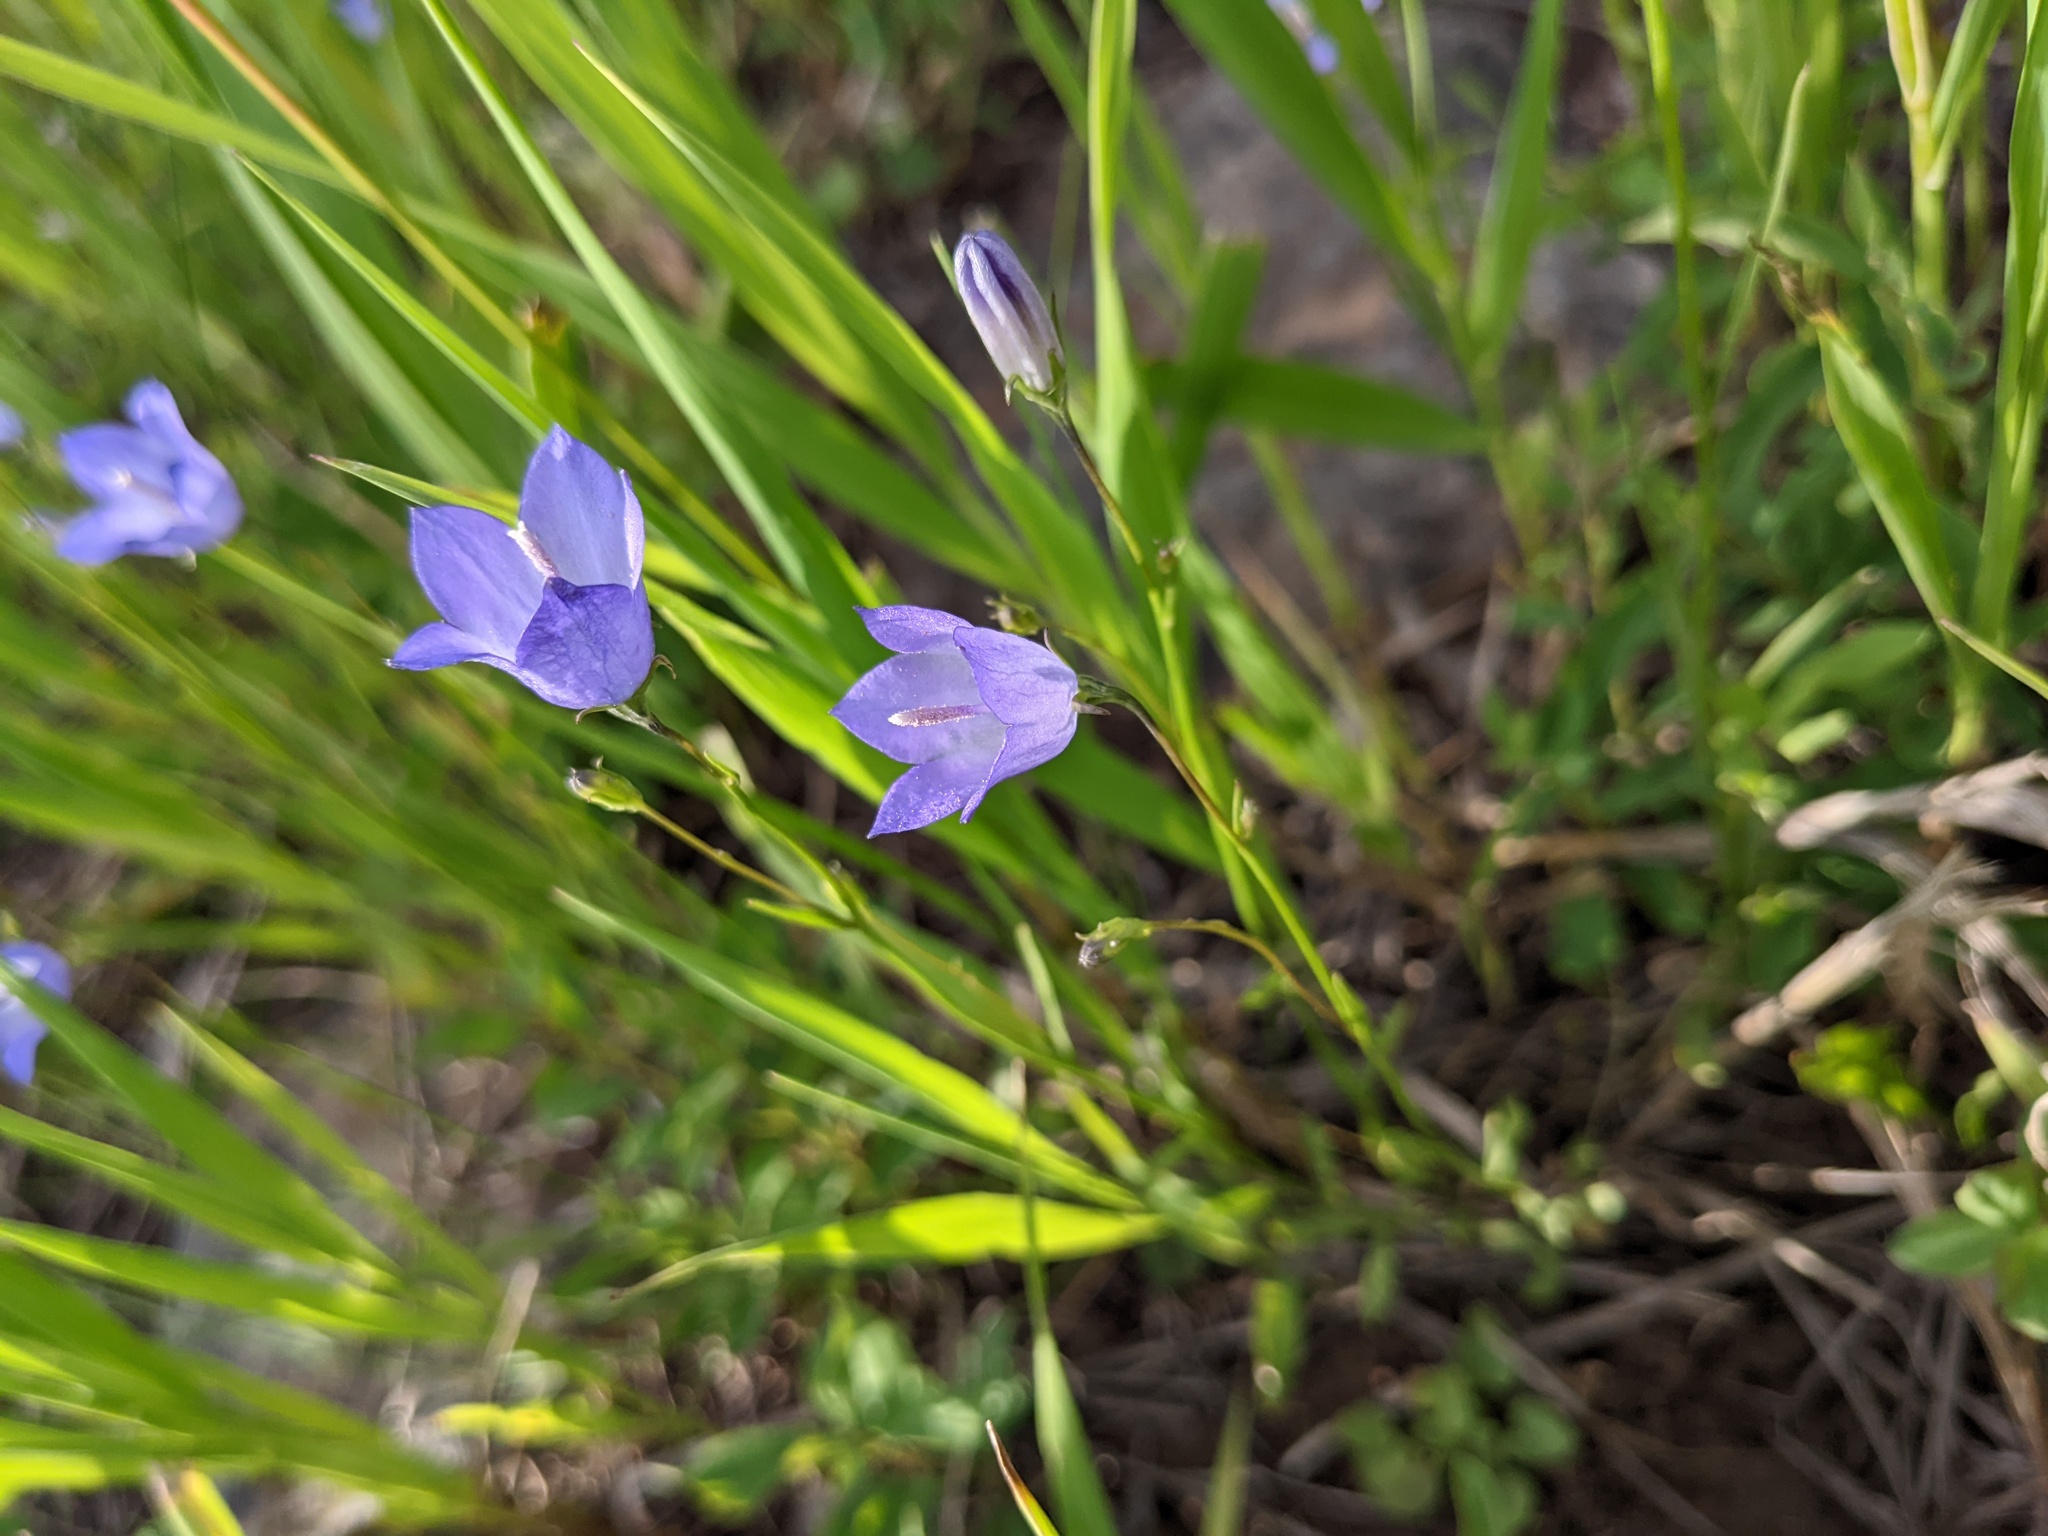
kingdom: Plantae
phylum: Tracheophyta
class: Magnoliopsida
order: Asterales
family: Campanulaceae
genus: Campanula
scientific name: Campanula
